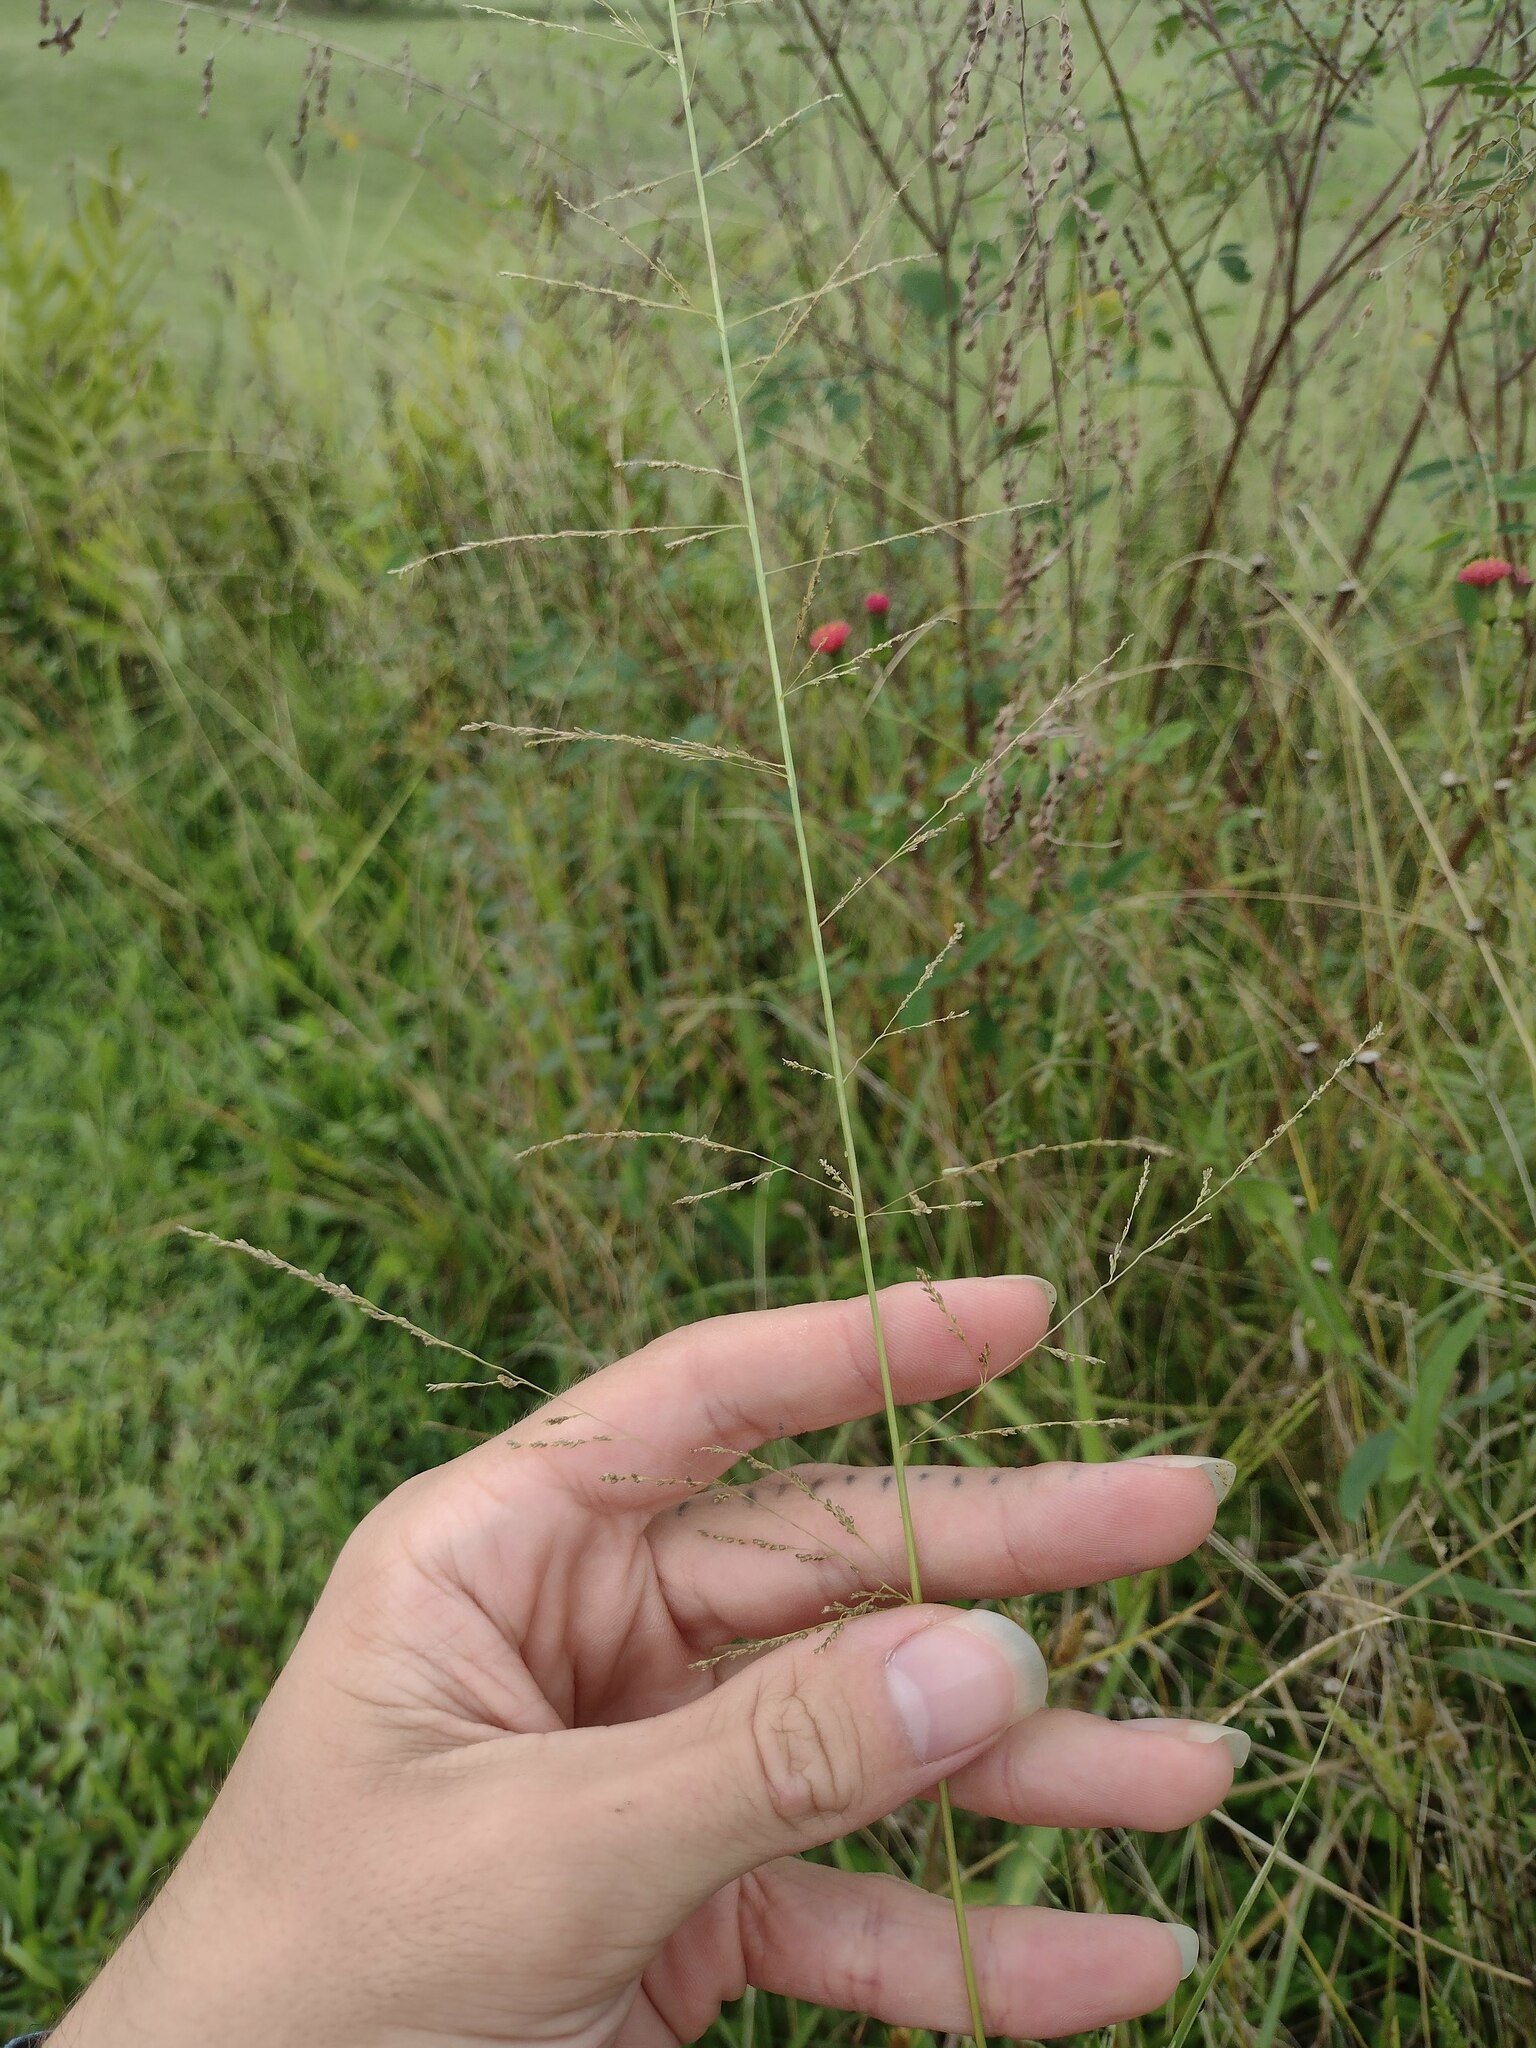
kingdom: Plantae
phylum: Tracheophyta
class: Liliopsida
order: Poales
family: Poaceae
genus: Sporobolus
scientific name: Sporobolus diandrus
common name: Tussock dropseed
